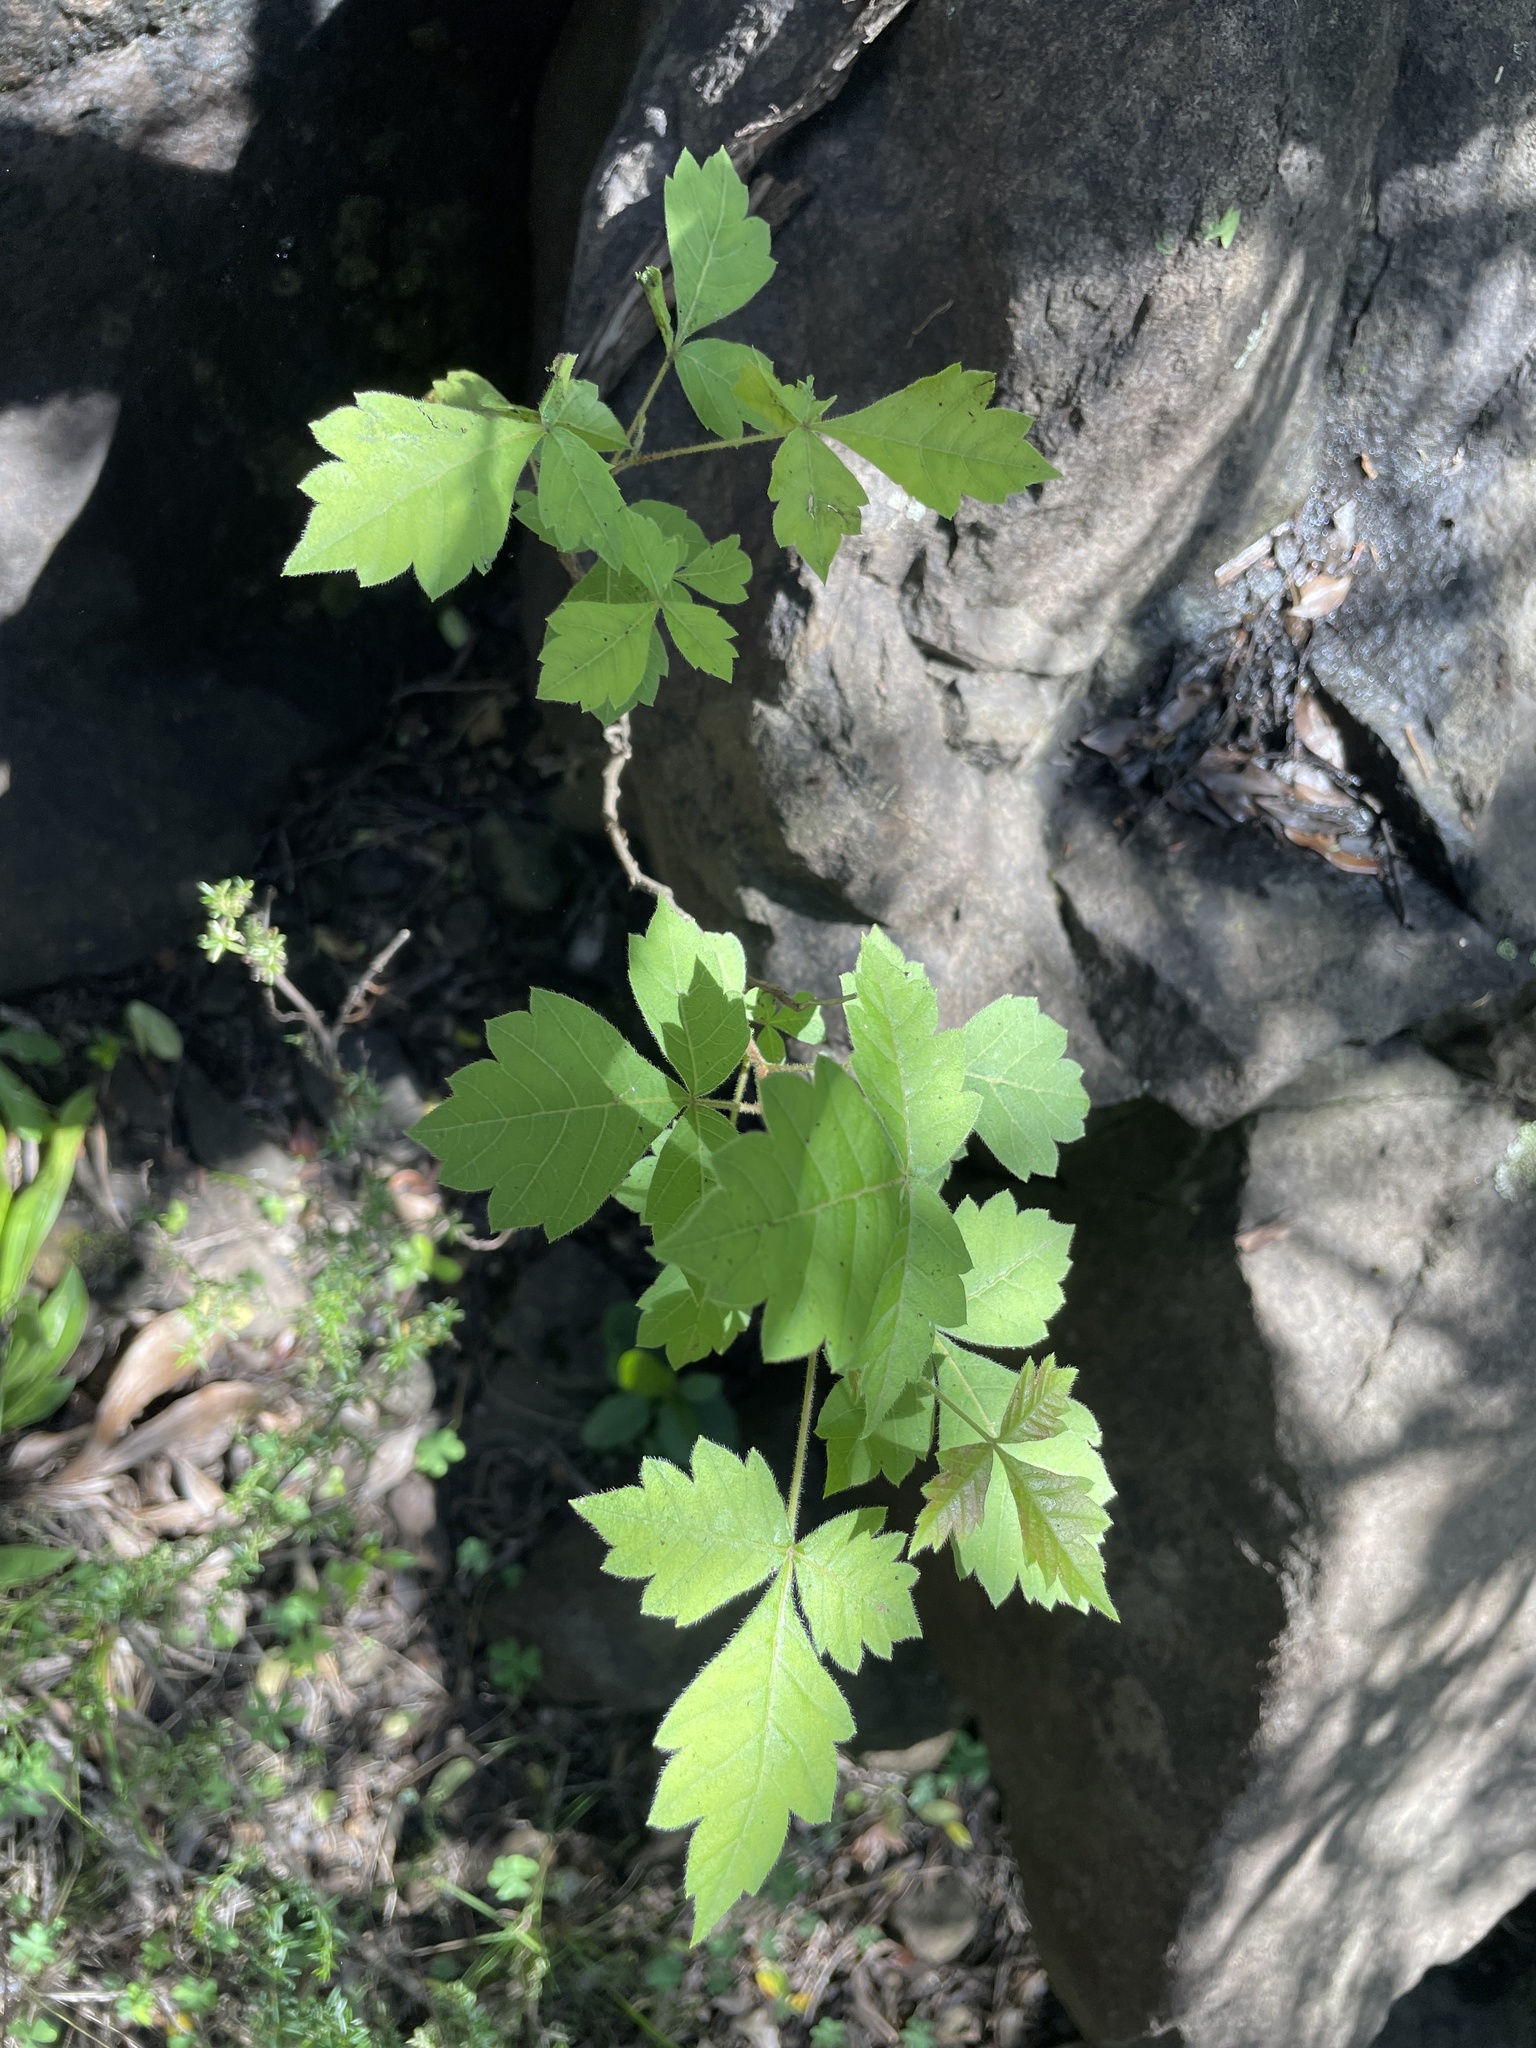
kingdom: Plantae
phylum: Tracheophyta
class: Magnoliopsida
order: Sapindales
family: Anacardiaceae
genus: Searsia
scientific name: Searsia dentata
